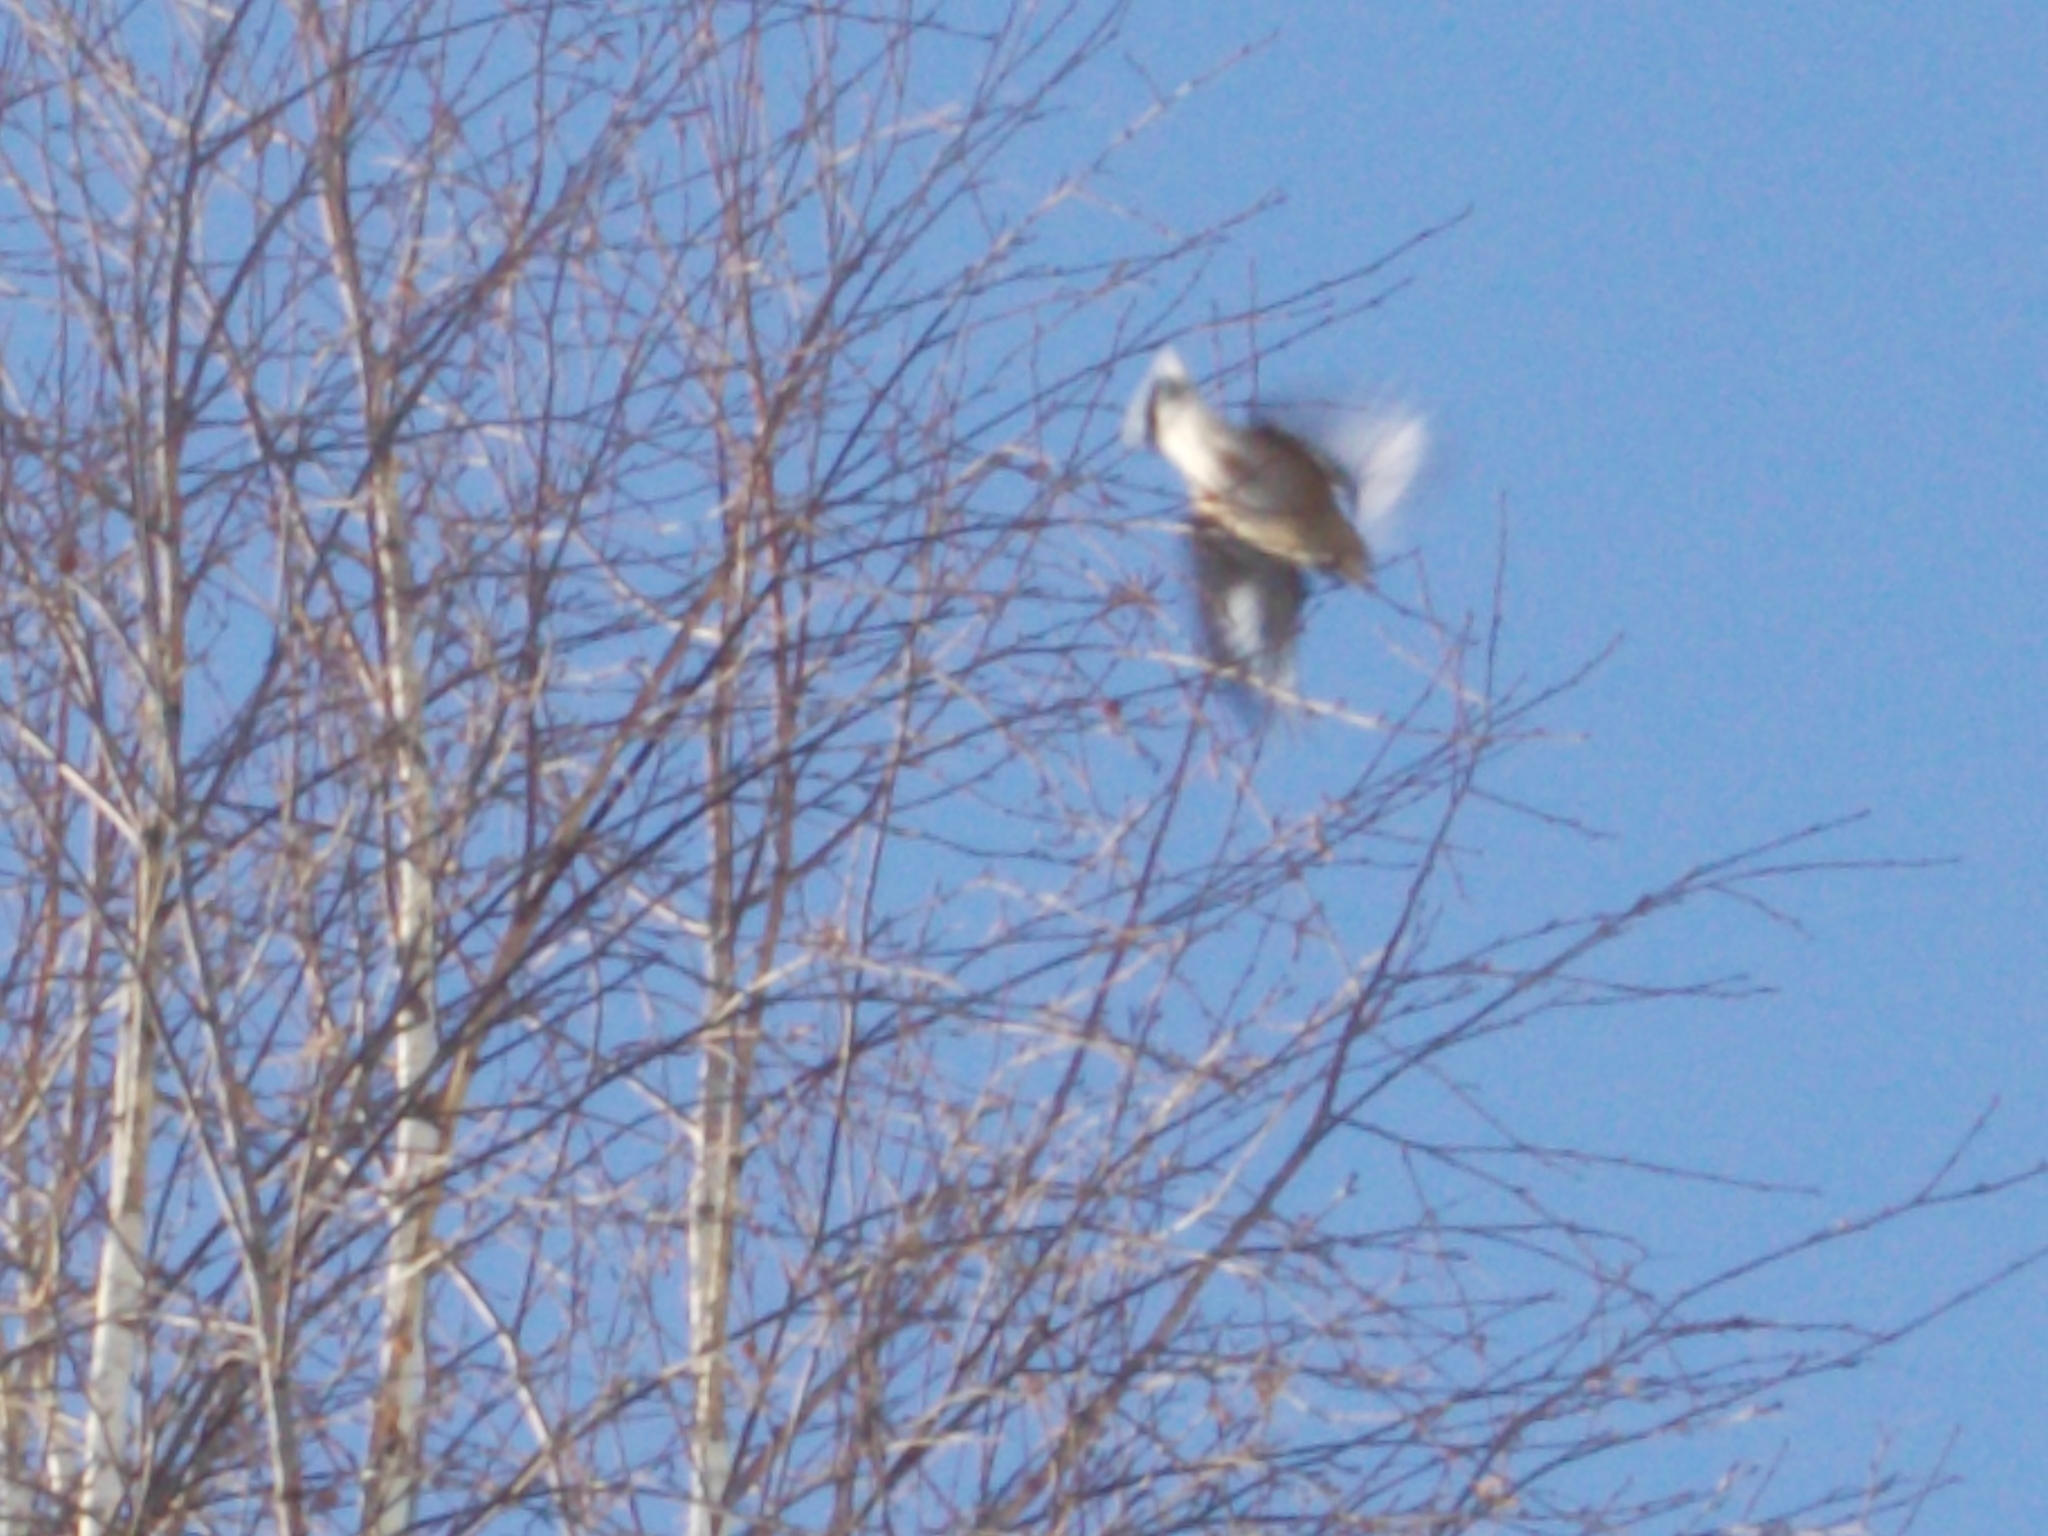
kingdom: Animalia
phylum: Chordata
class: Aves
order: Passeriformes
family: Fringillidae
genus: Coccothraustes
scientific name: Coccothraustes coccothraustes
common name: Hawfinch
